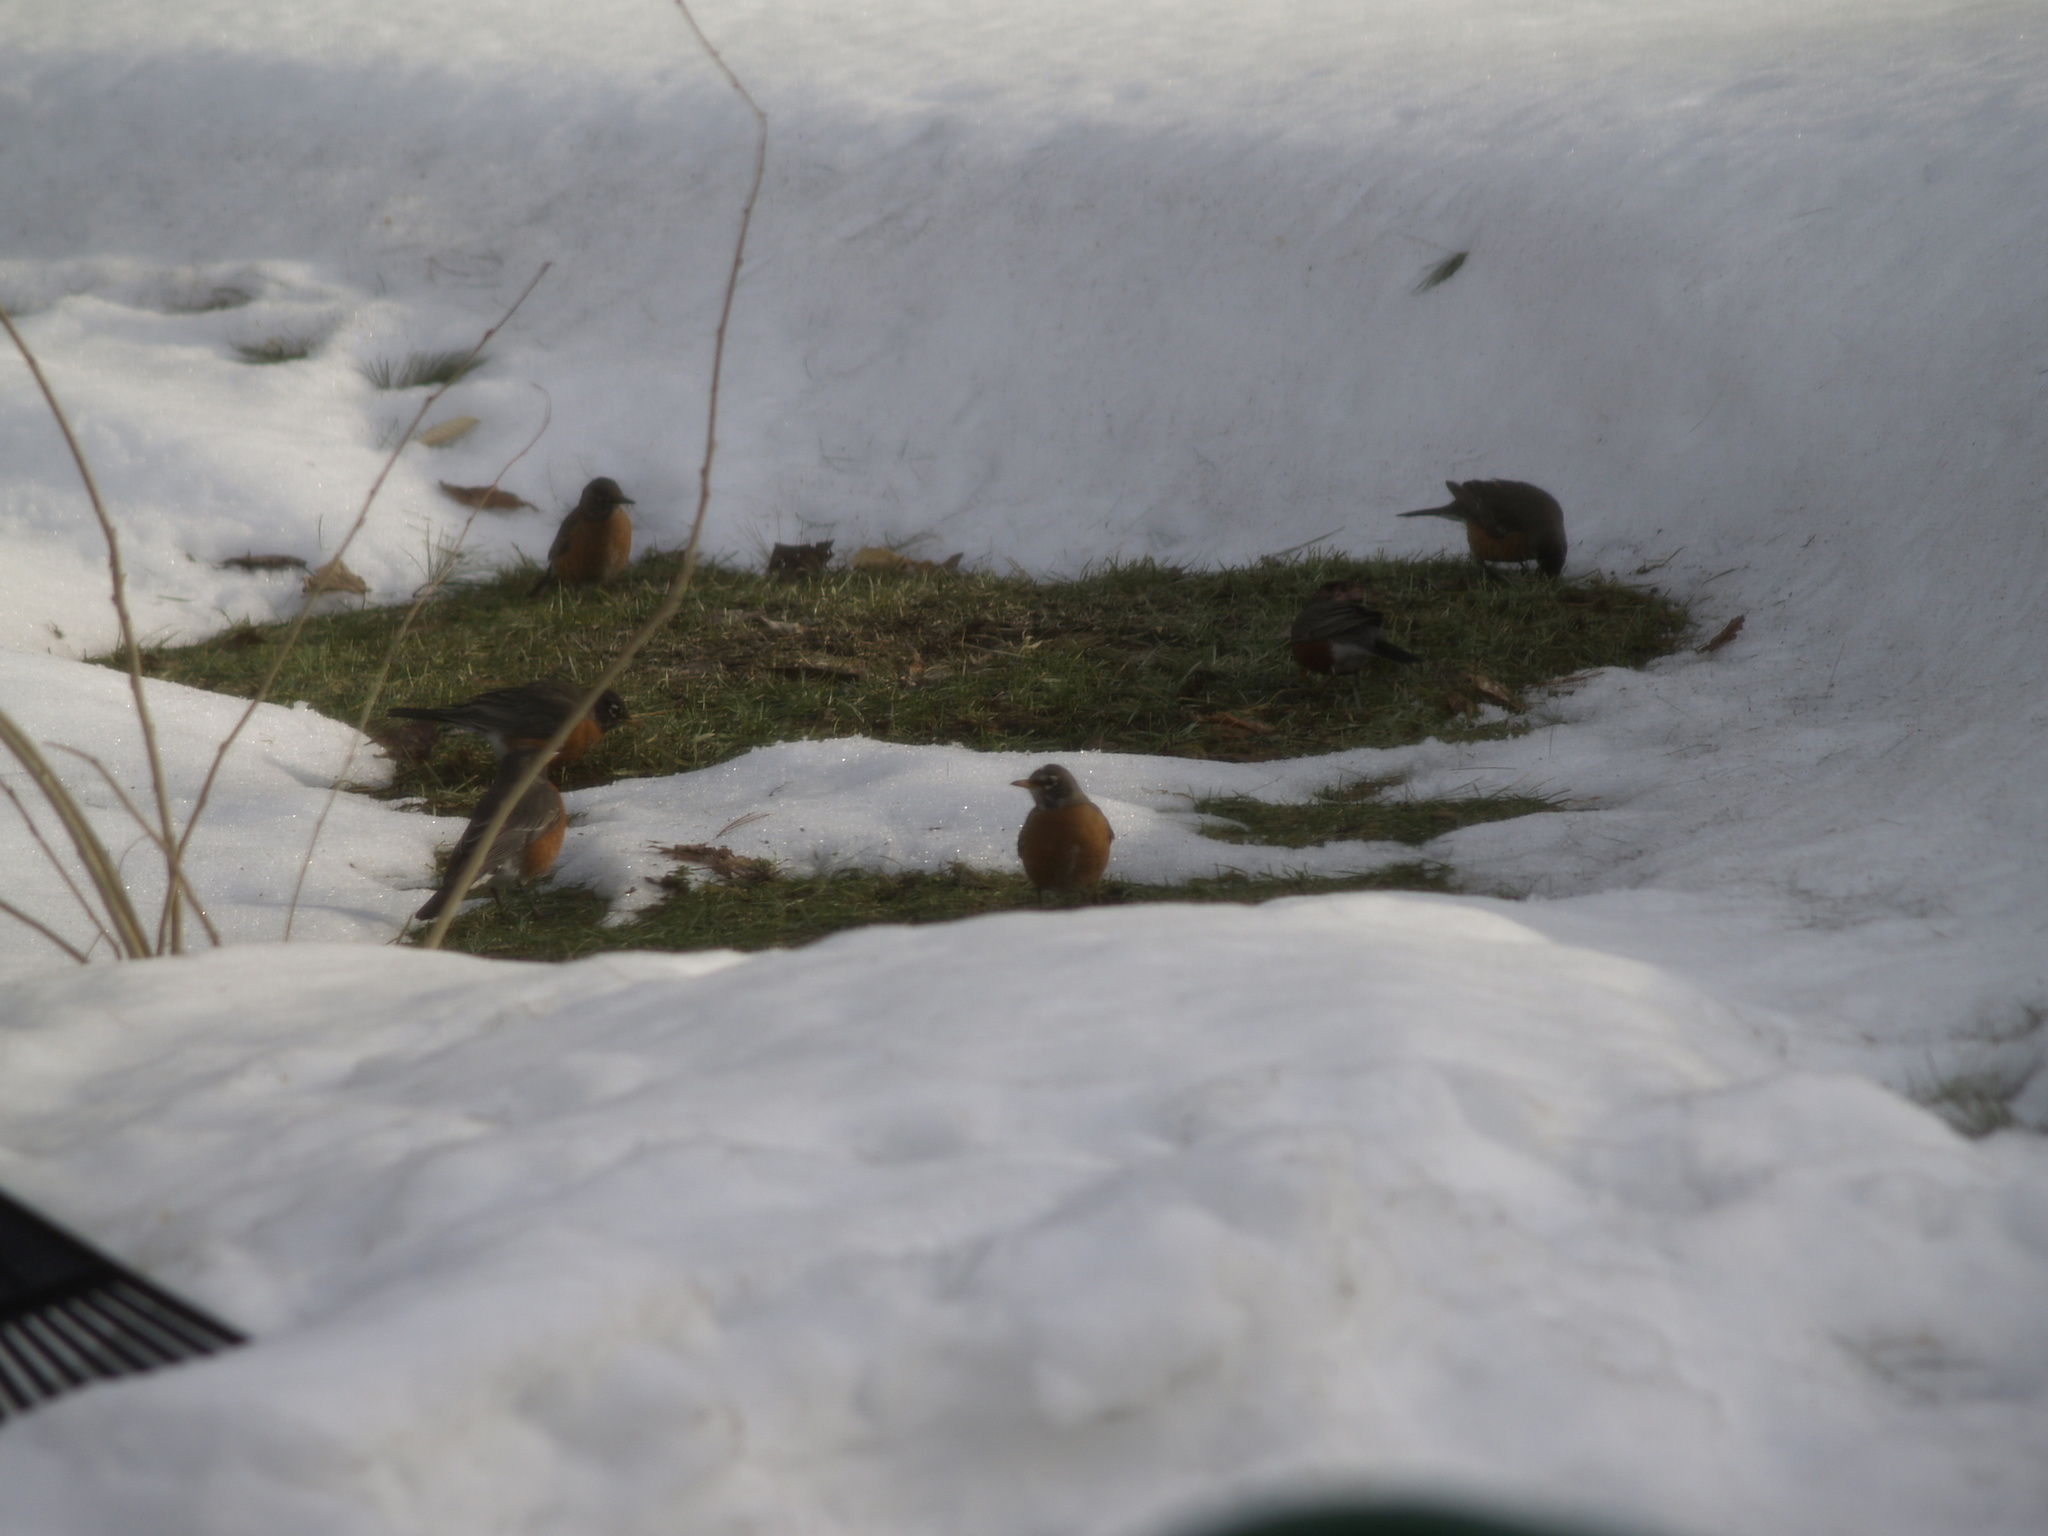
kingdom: Animalia
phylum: Chordata
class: Aves
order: Passeriformes
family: Turdidae
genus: Turdus
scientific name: Turdus migratorius
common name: American robin
